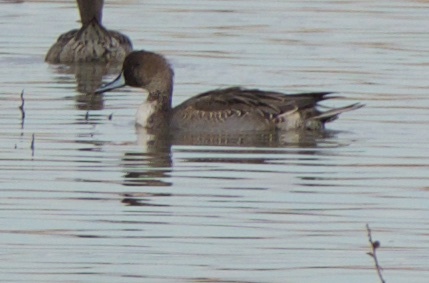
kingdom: Animalia
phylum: Chordata
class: Aves
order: Anseriformes
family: Anatidae
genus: Anas
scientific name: Anas acuta
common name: Northern pintail
